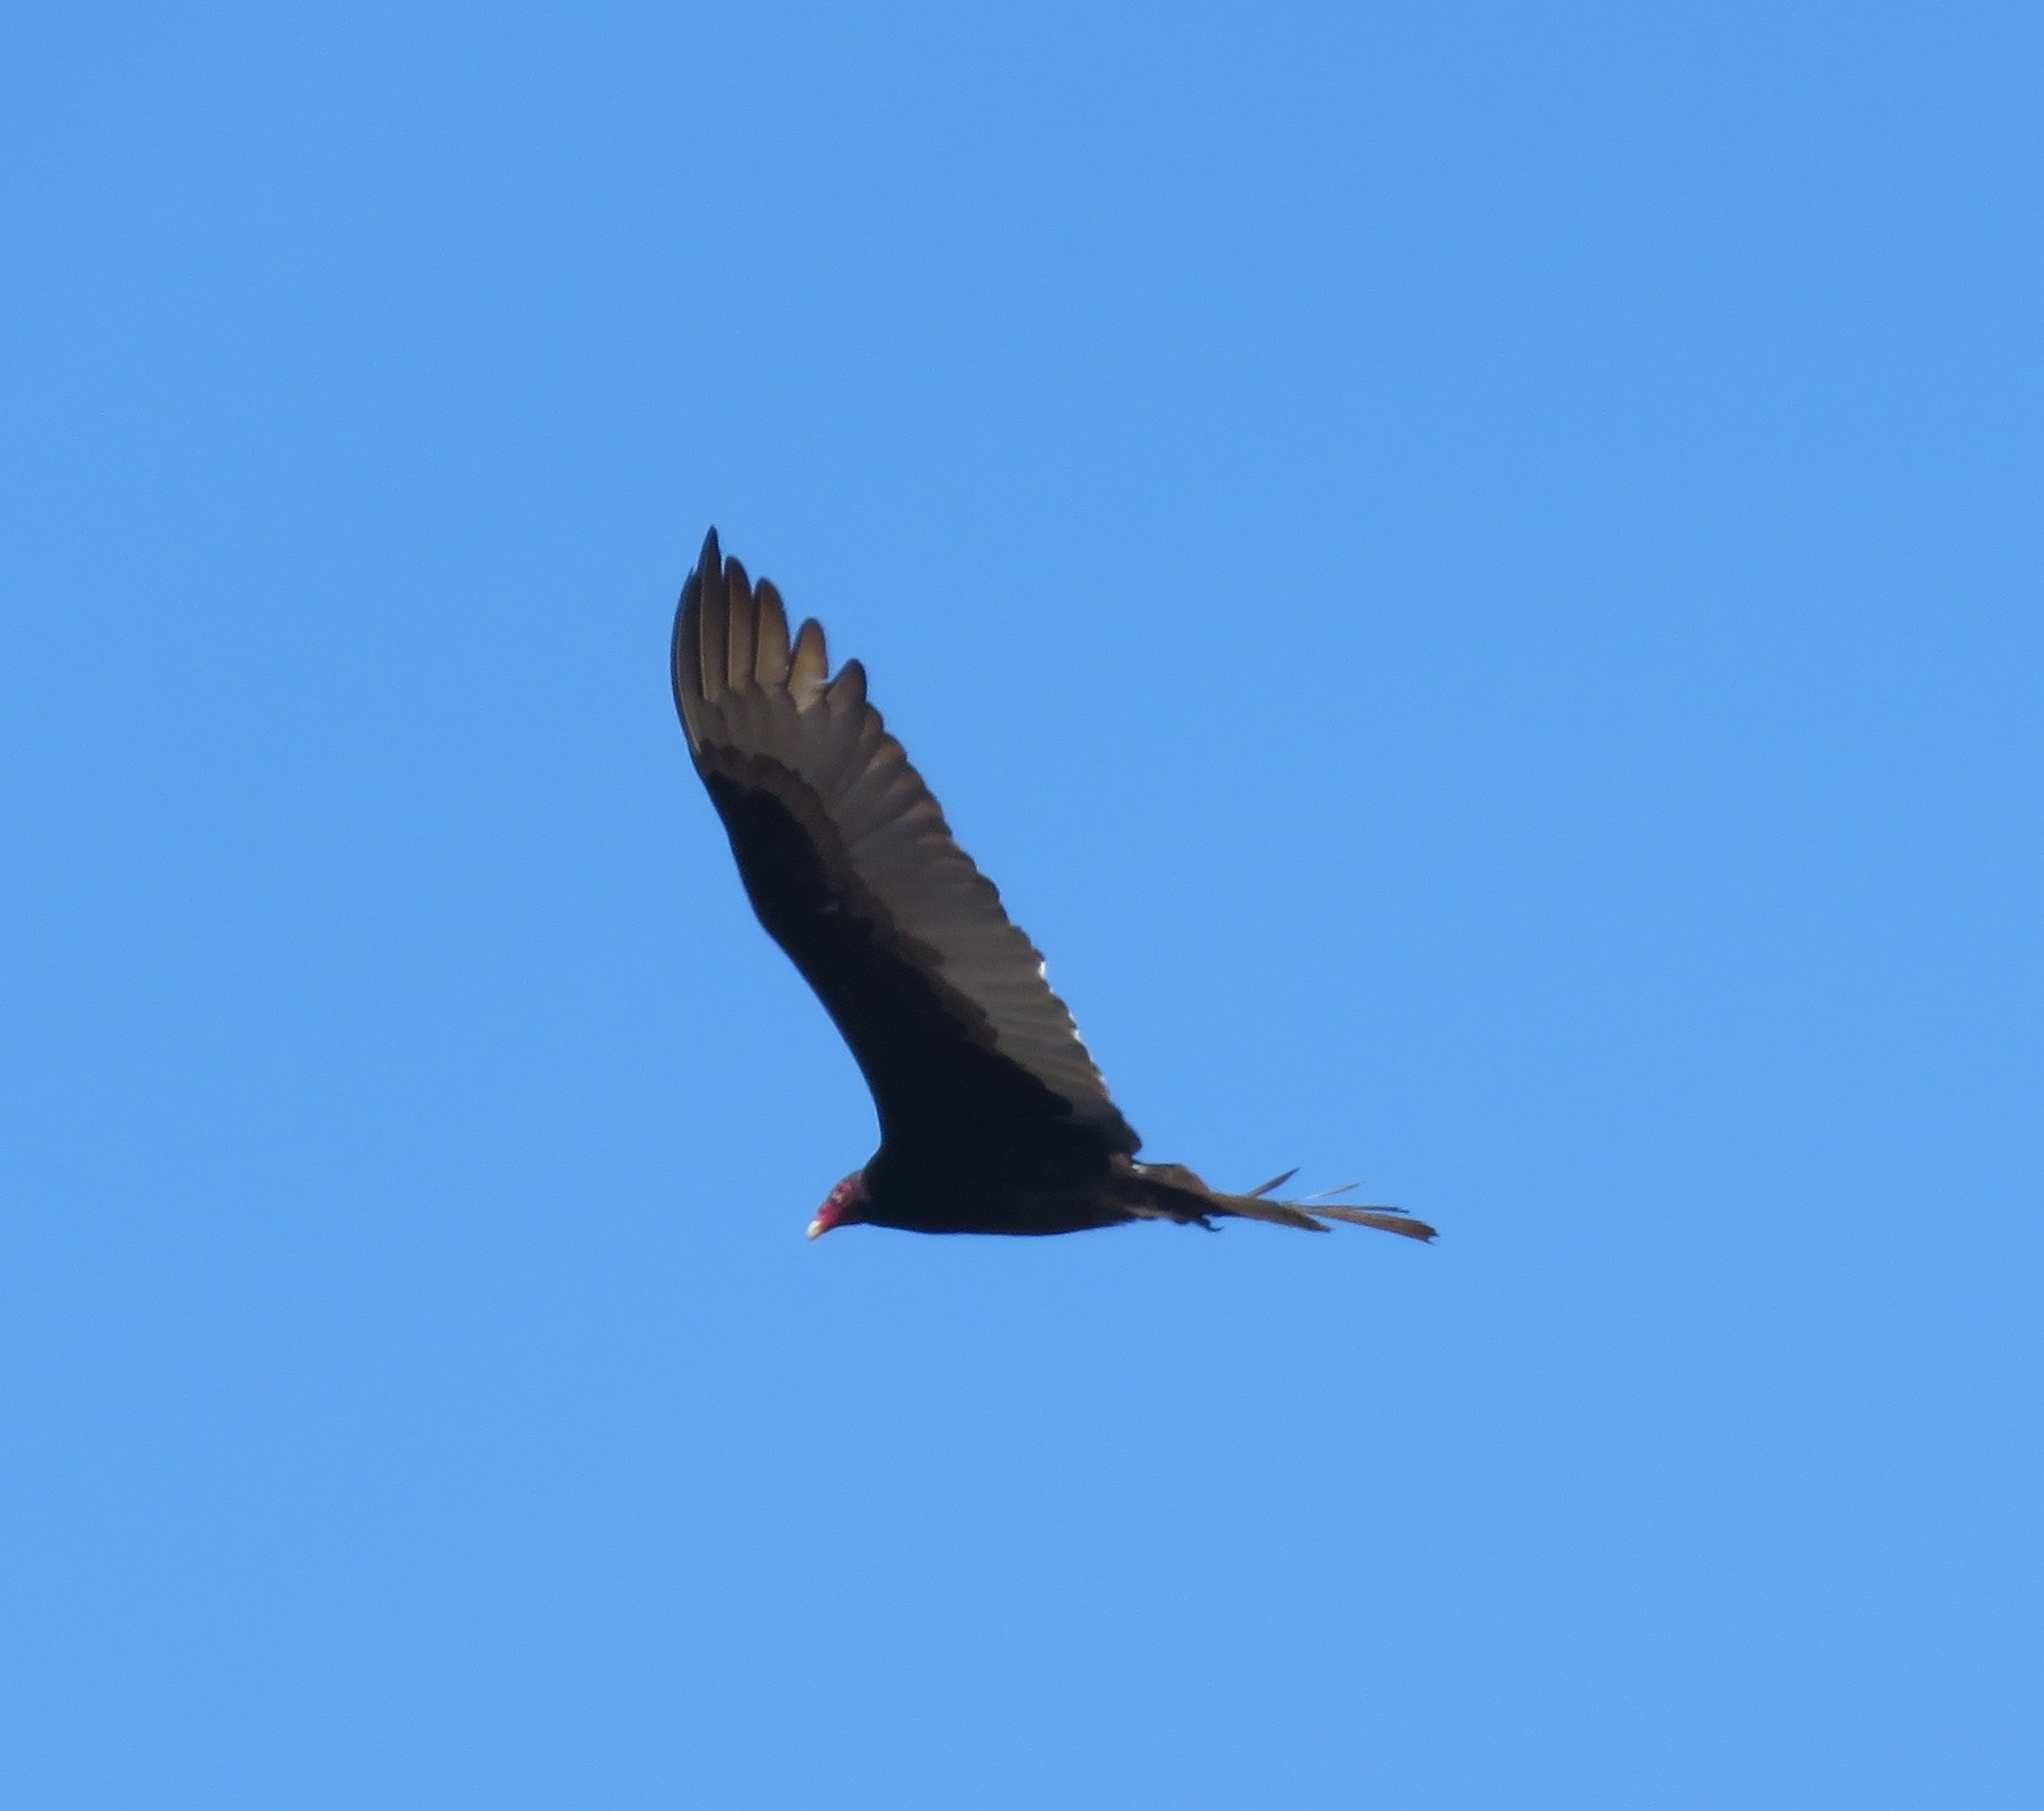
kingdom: Animalia
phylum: Chordata
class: Aves
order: Accipitriformes
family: Cathartidae
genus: Cathartes
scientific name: Cathartes aura
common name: Turkey vulture
